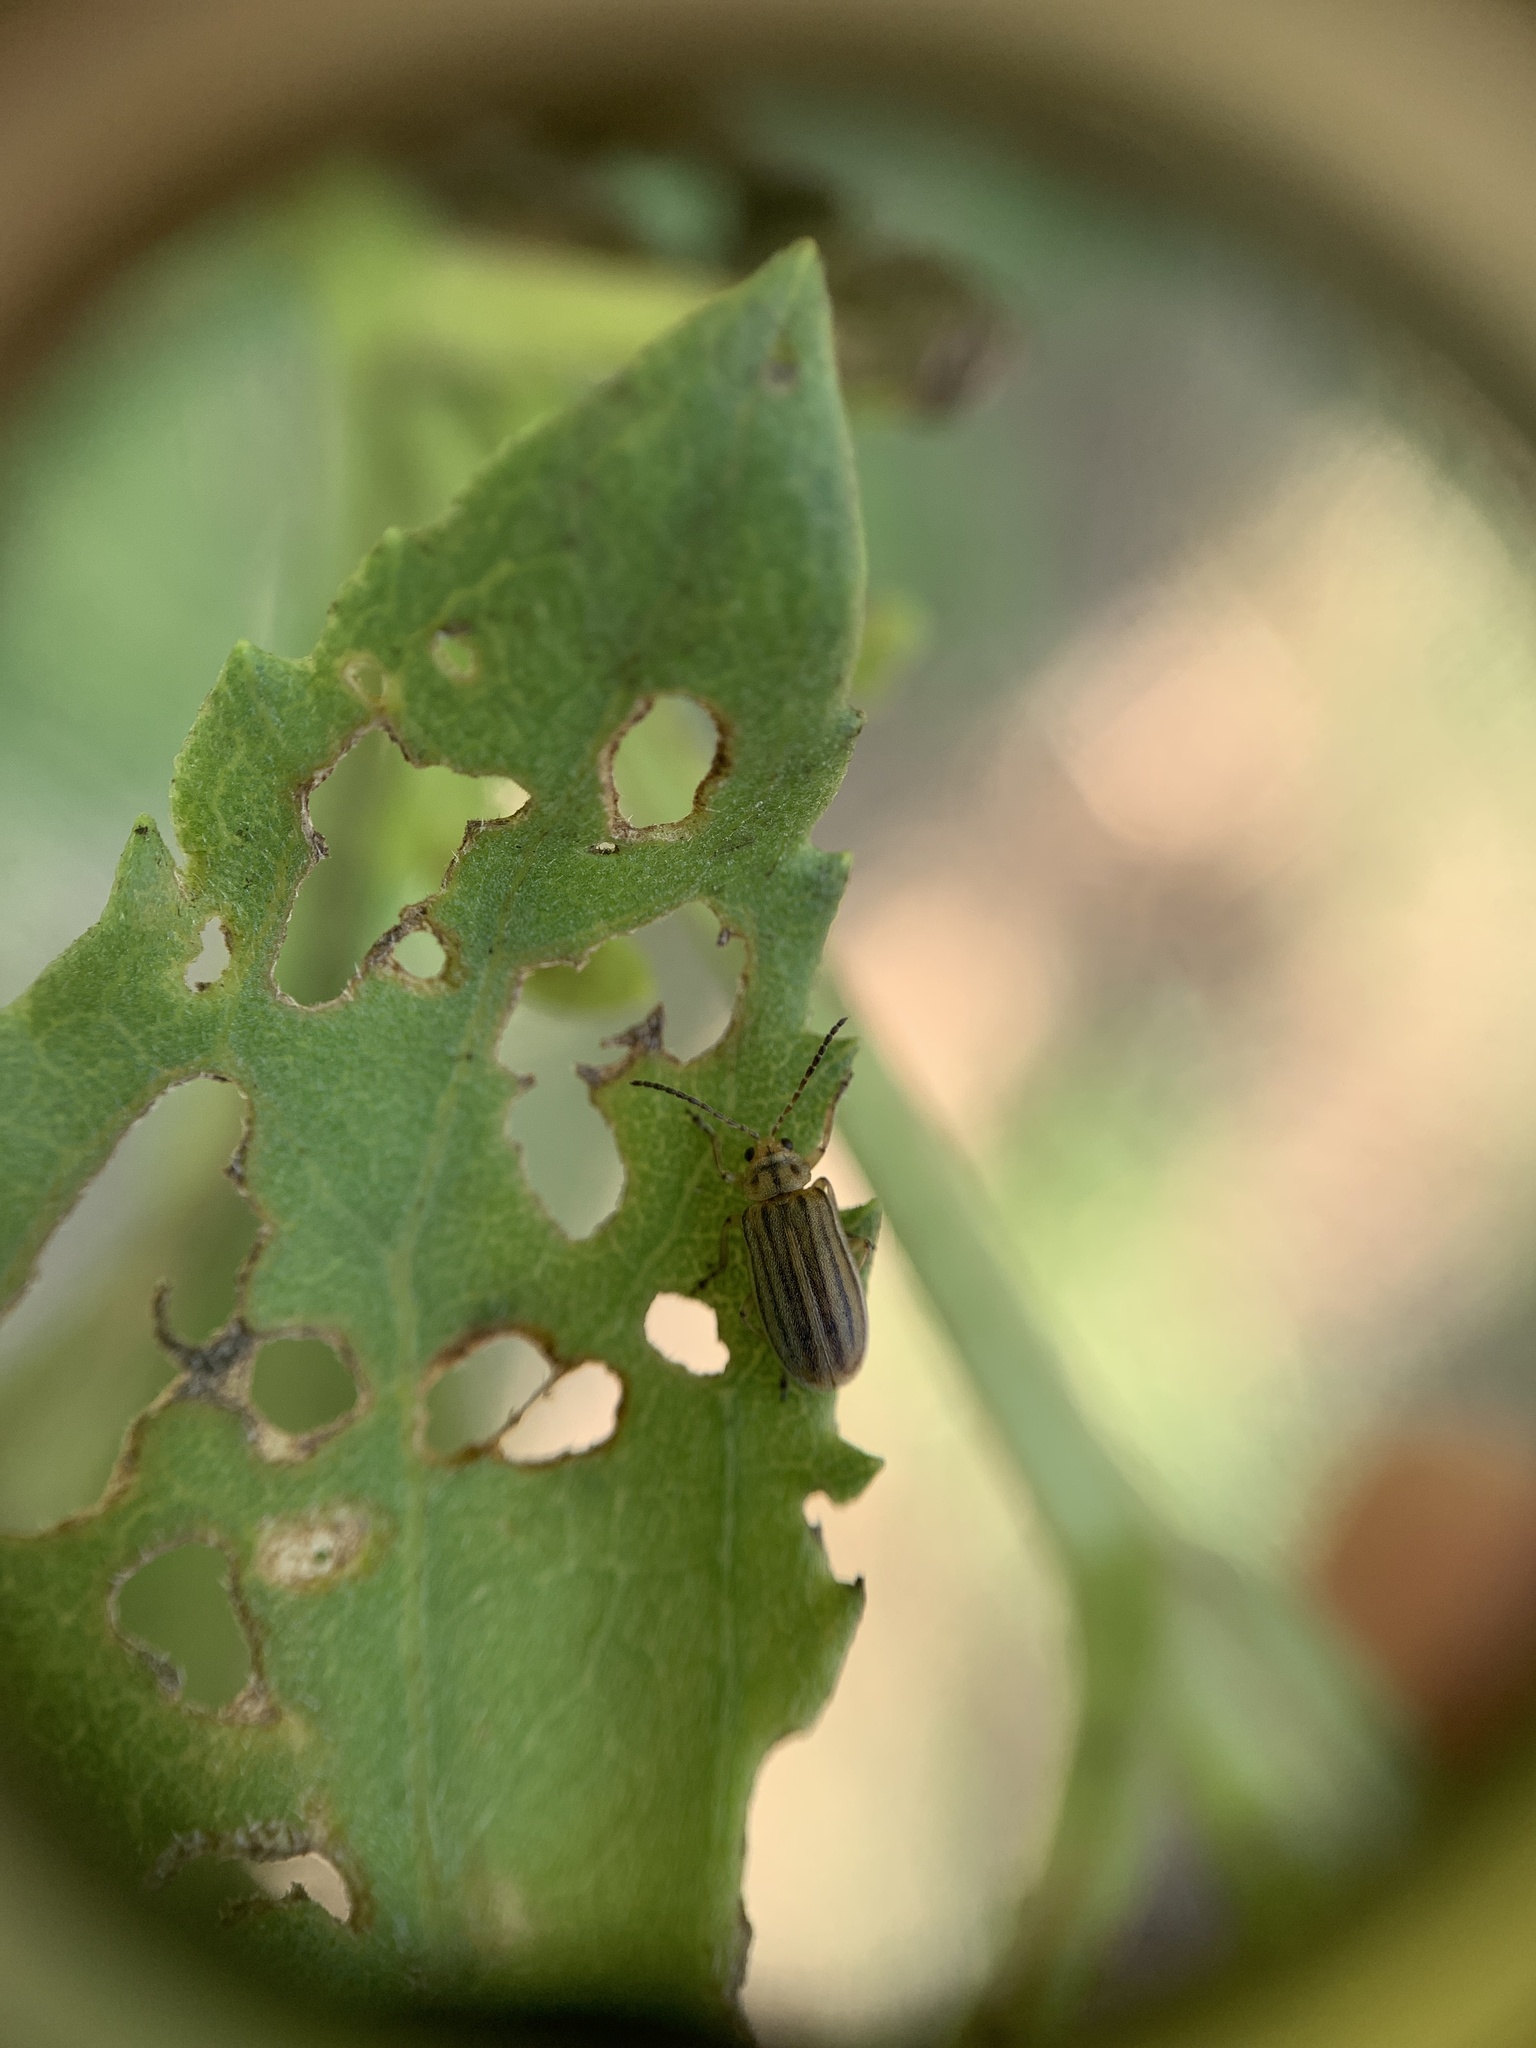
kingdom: Animalia
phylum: Arthropoda
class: Insecta
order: Coleoptera
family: Chrysomelidae
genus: Ophraella
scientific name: Ophraella notulata
